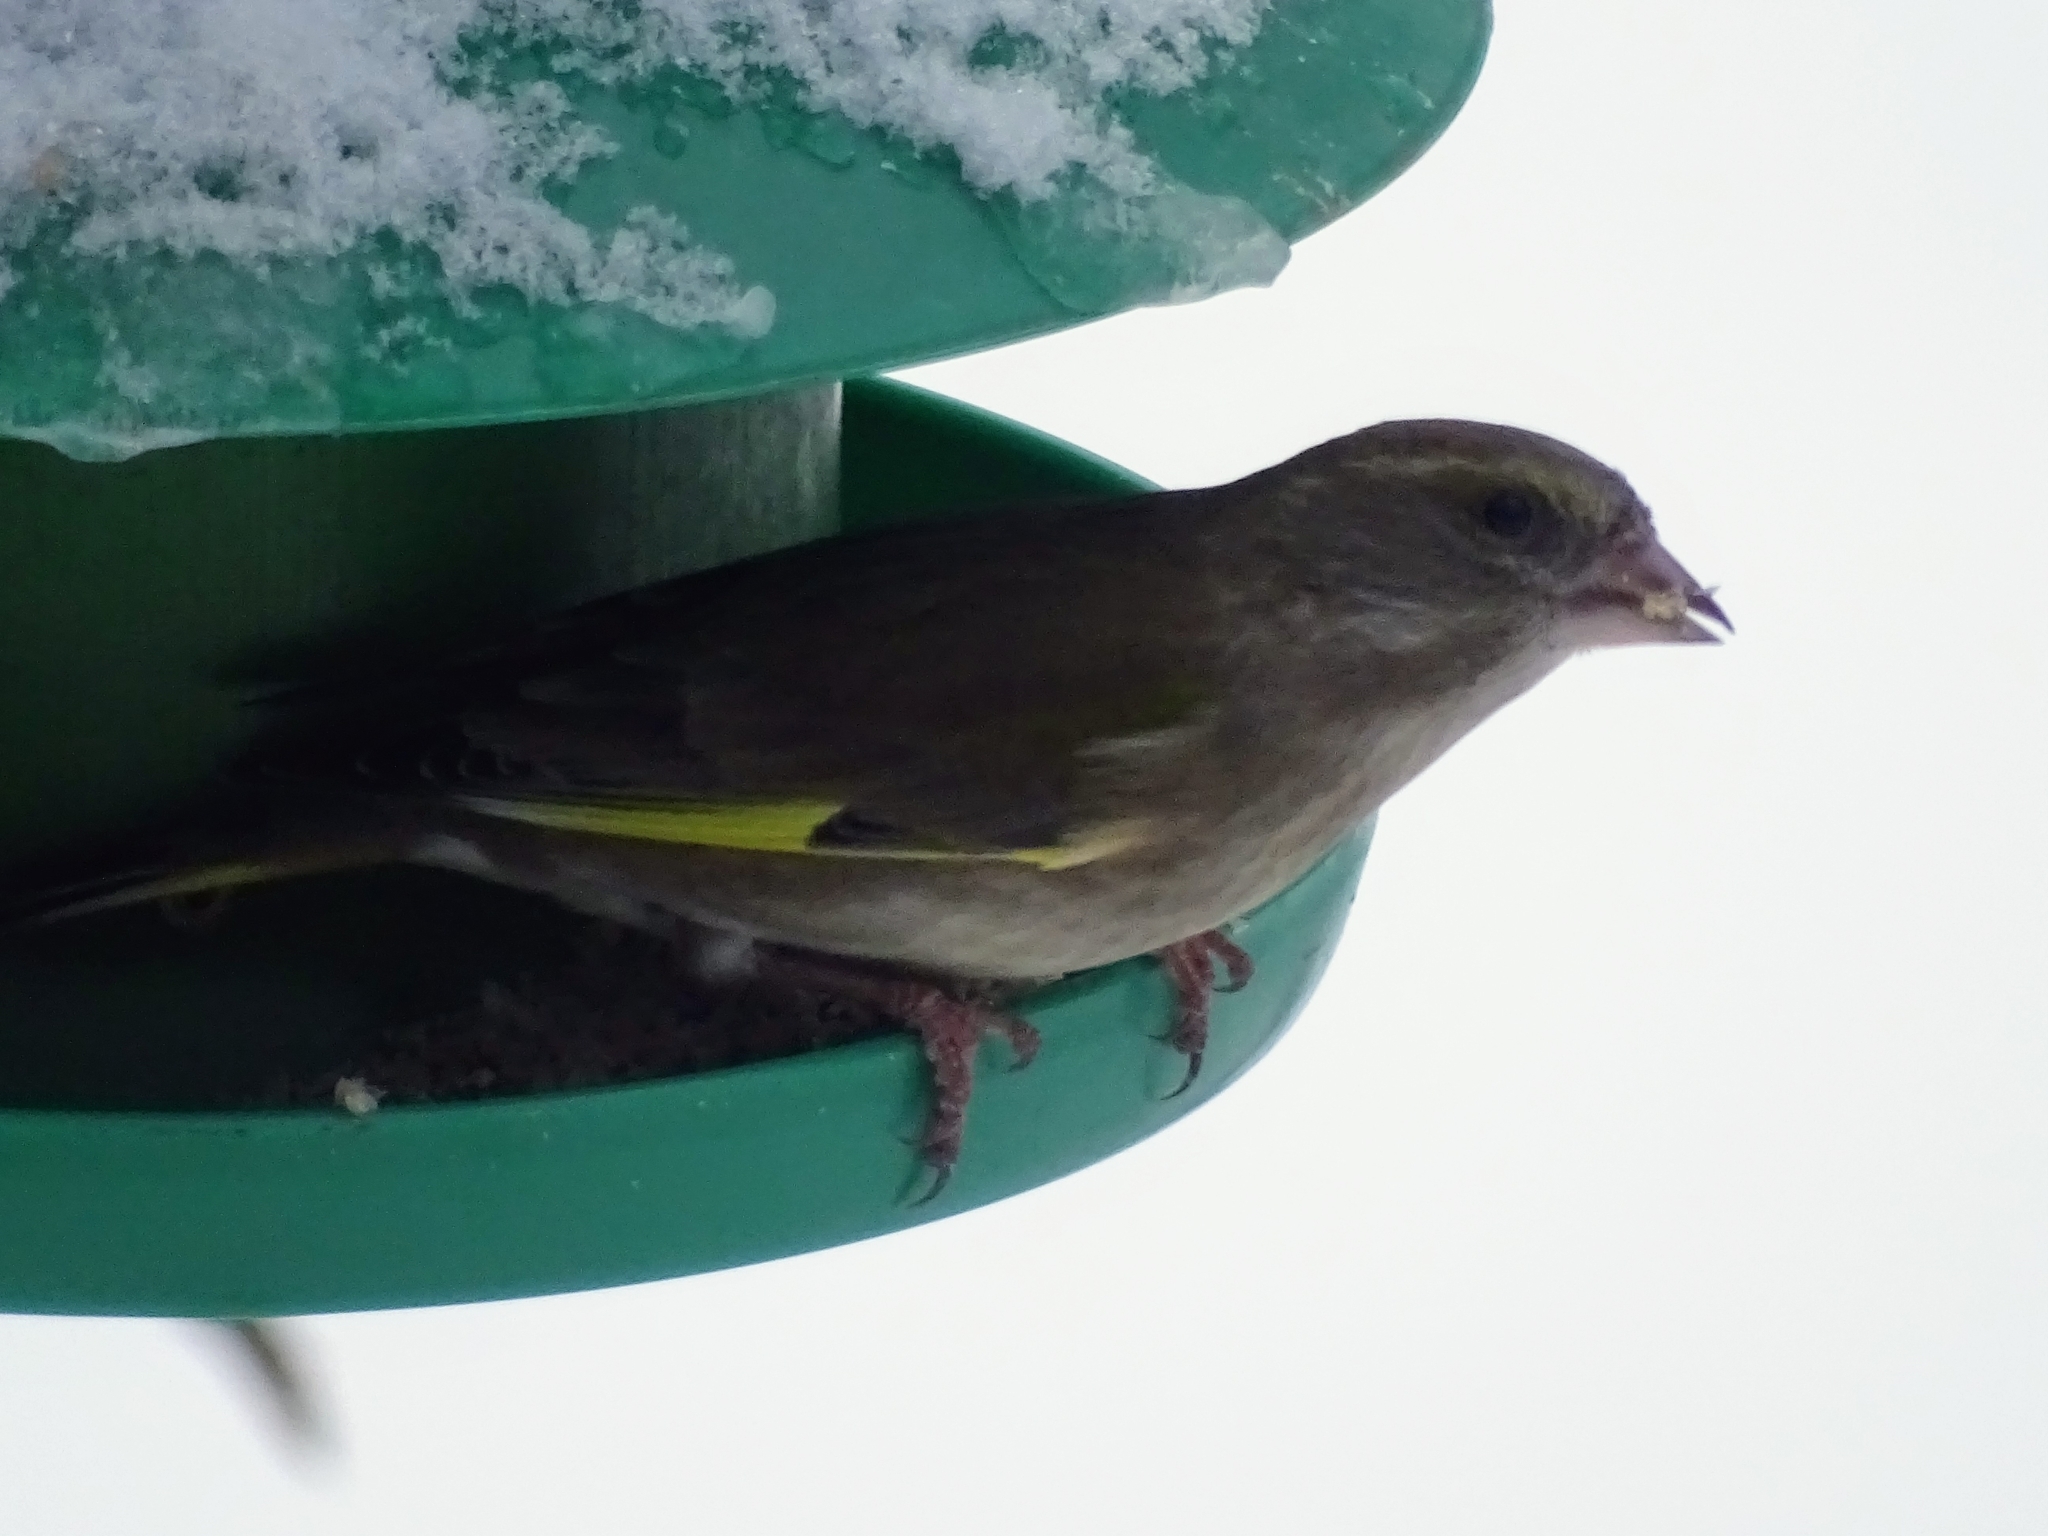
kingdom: Plantae
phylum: Tracheophyta
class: Liliopsida
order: Poales
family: Poaceae
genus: Chloris
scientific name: Chloris chloris
